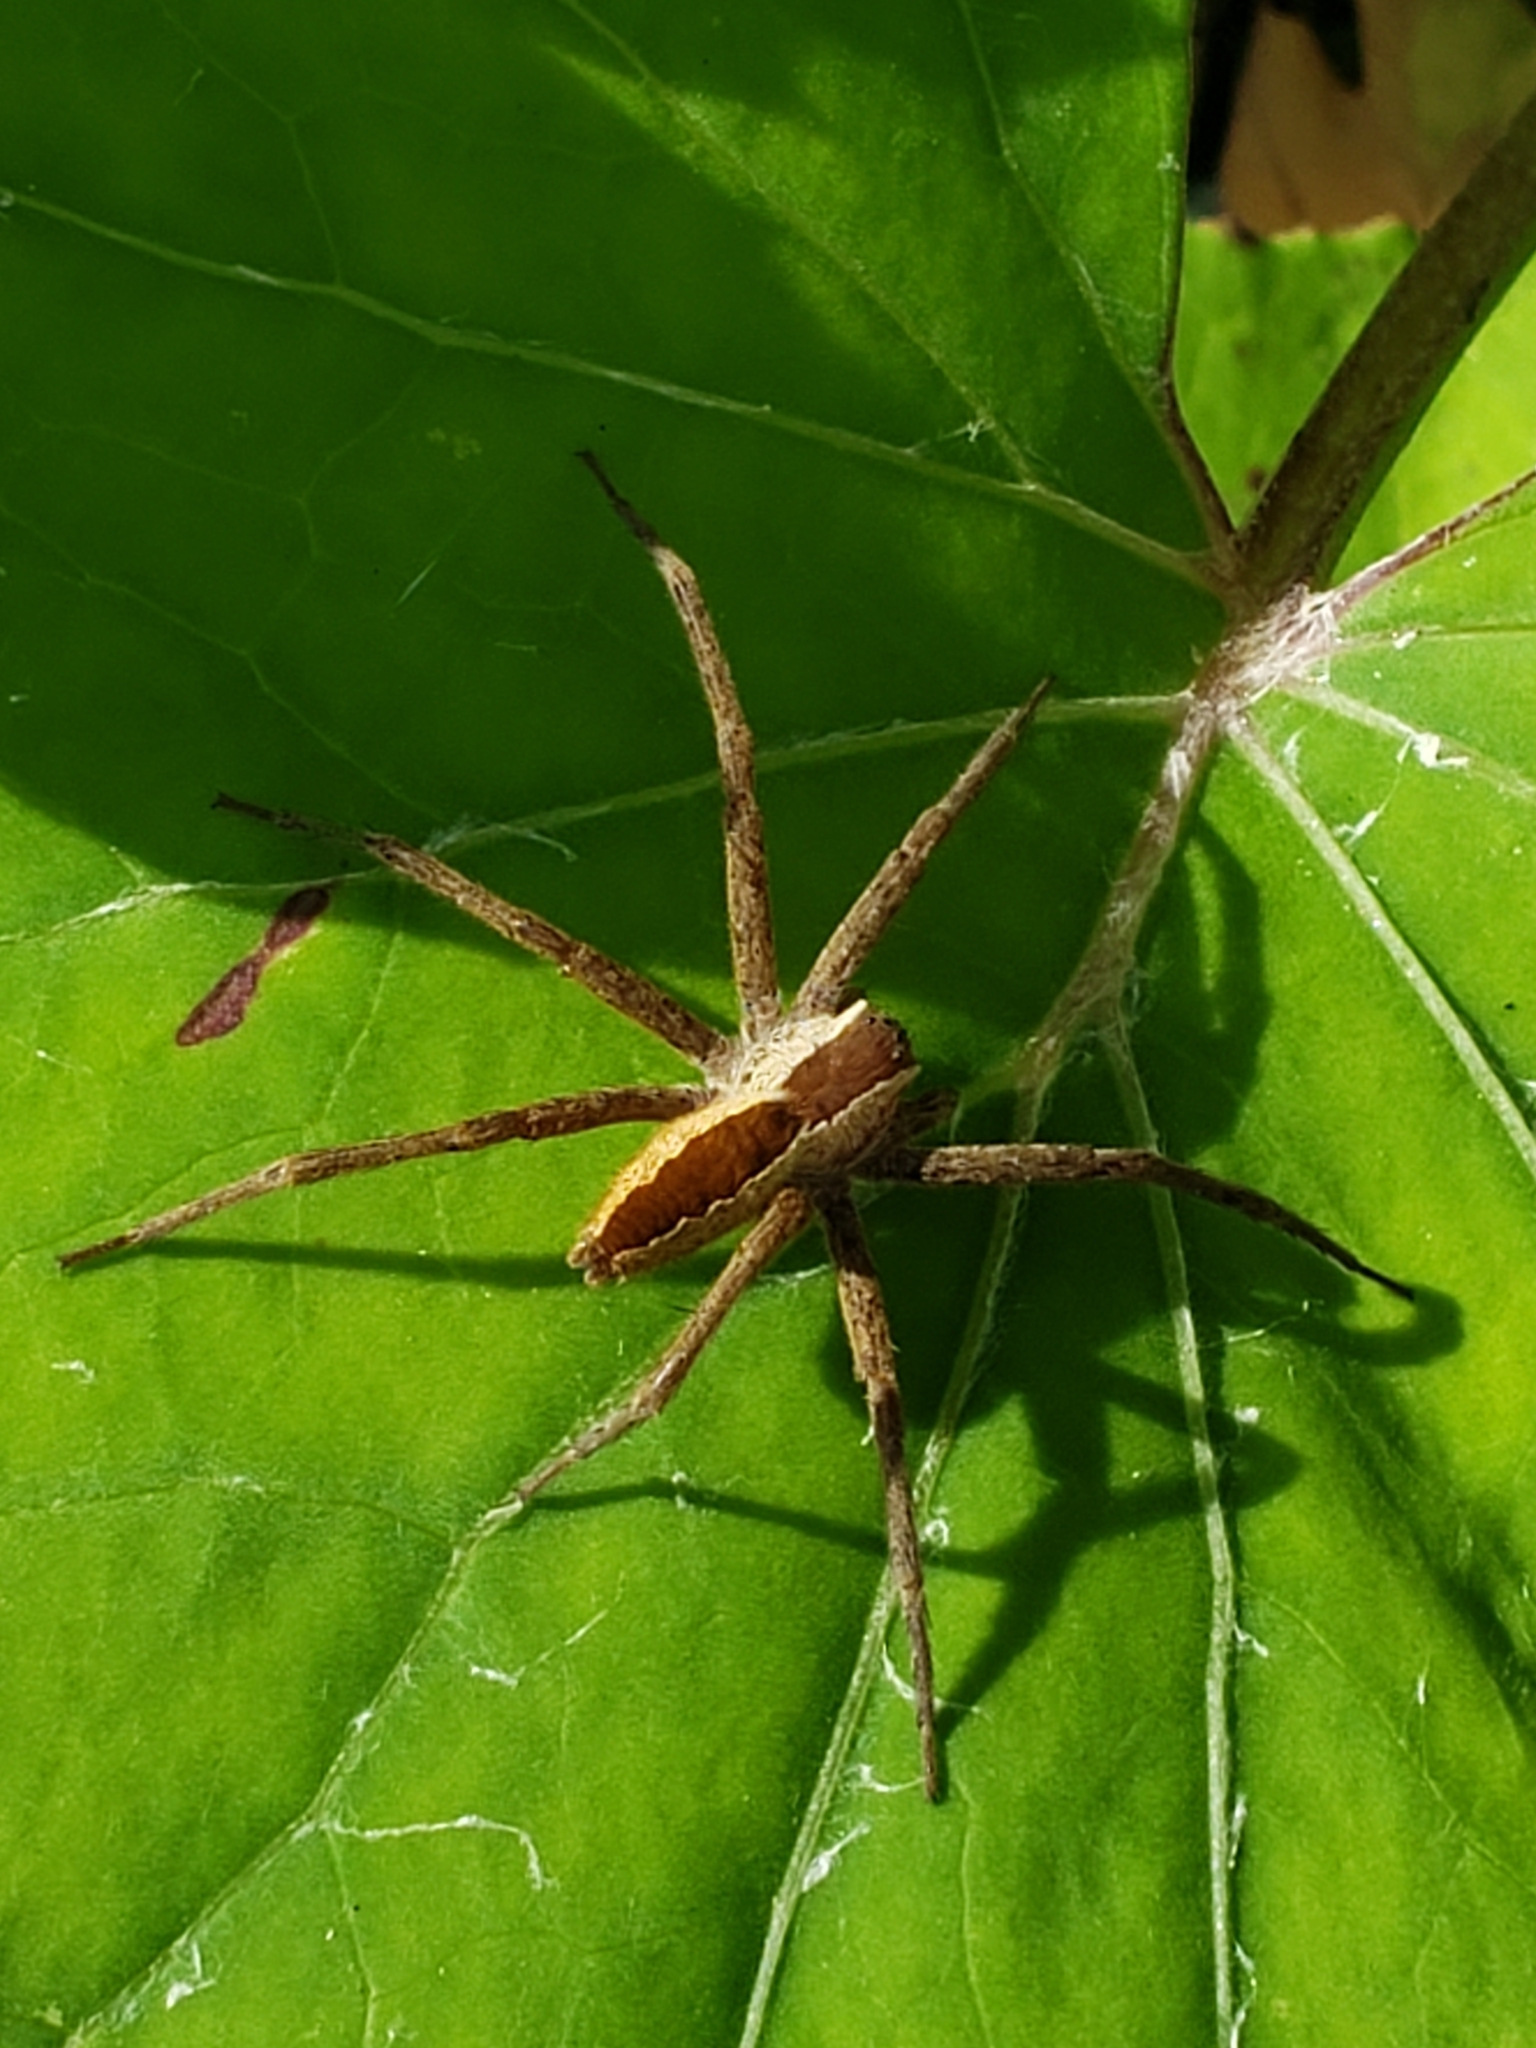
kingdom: Animalia
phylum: Arthropoda
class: Arachnida
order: Araneae
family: Pisauridae
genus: Pisaurina
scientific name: Pisaurina mira
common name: American nursery web spider
